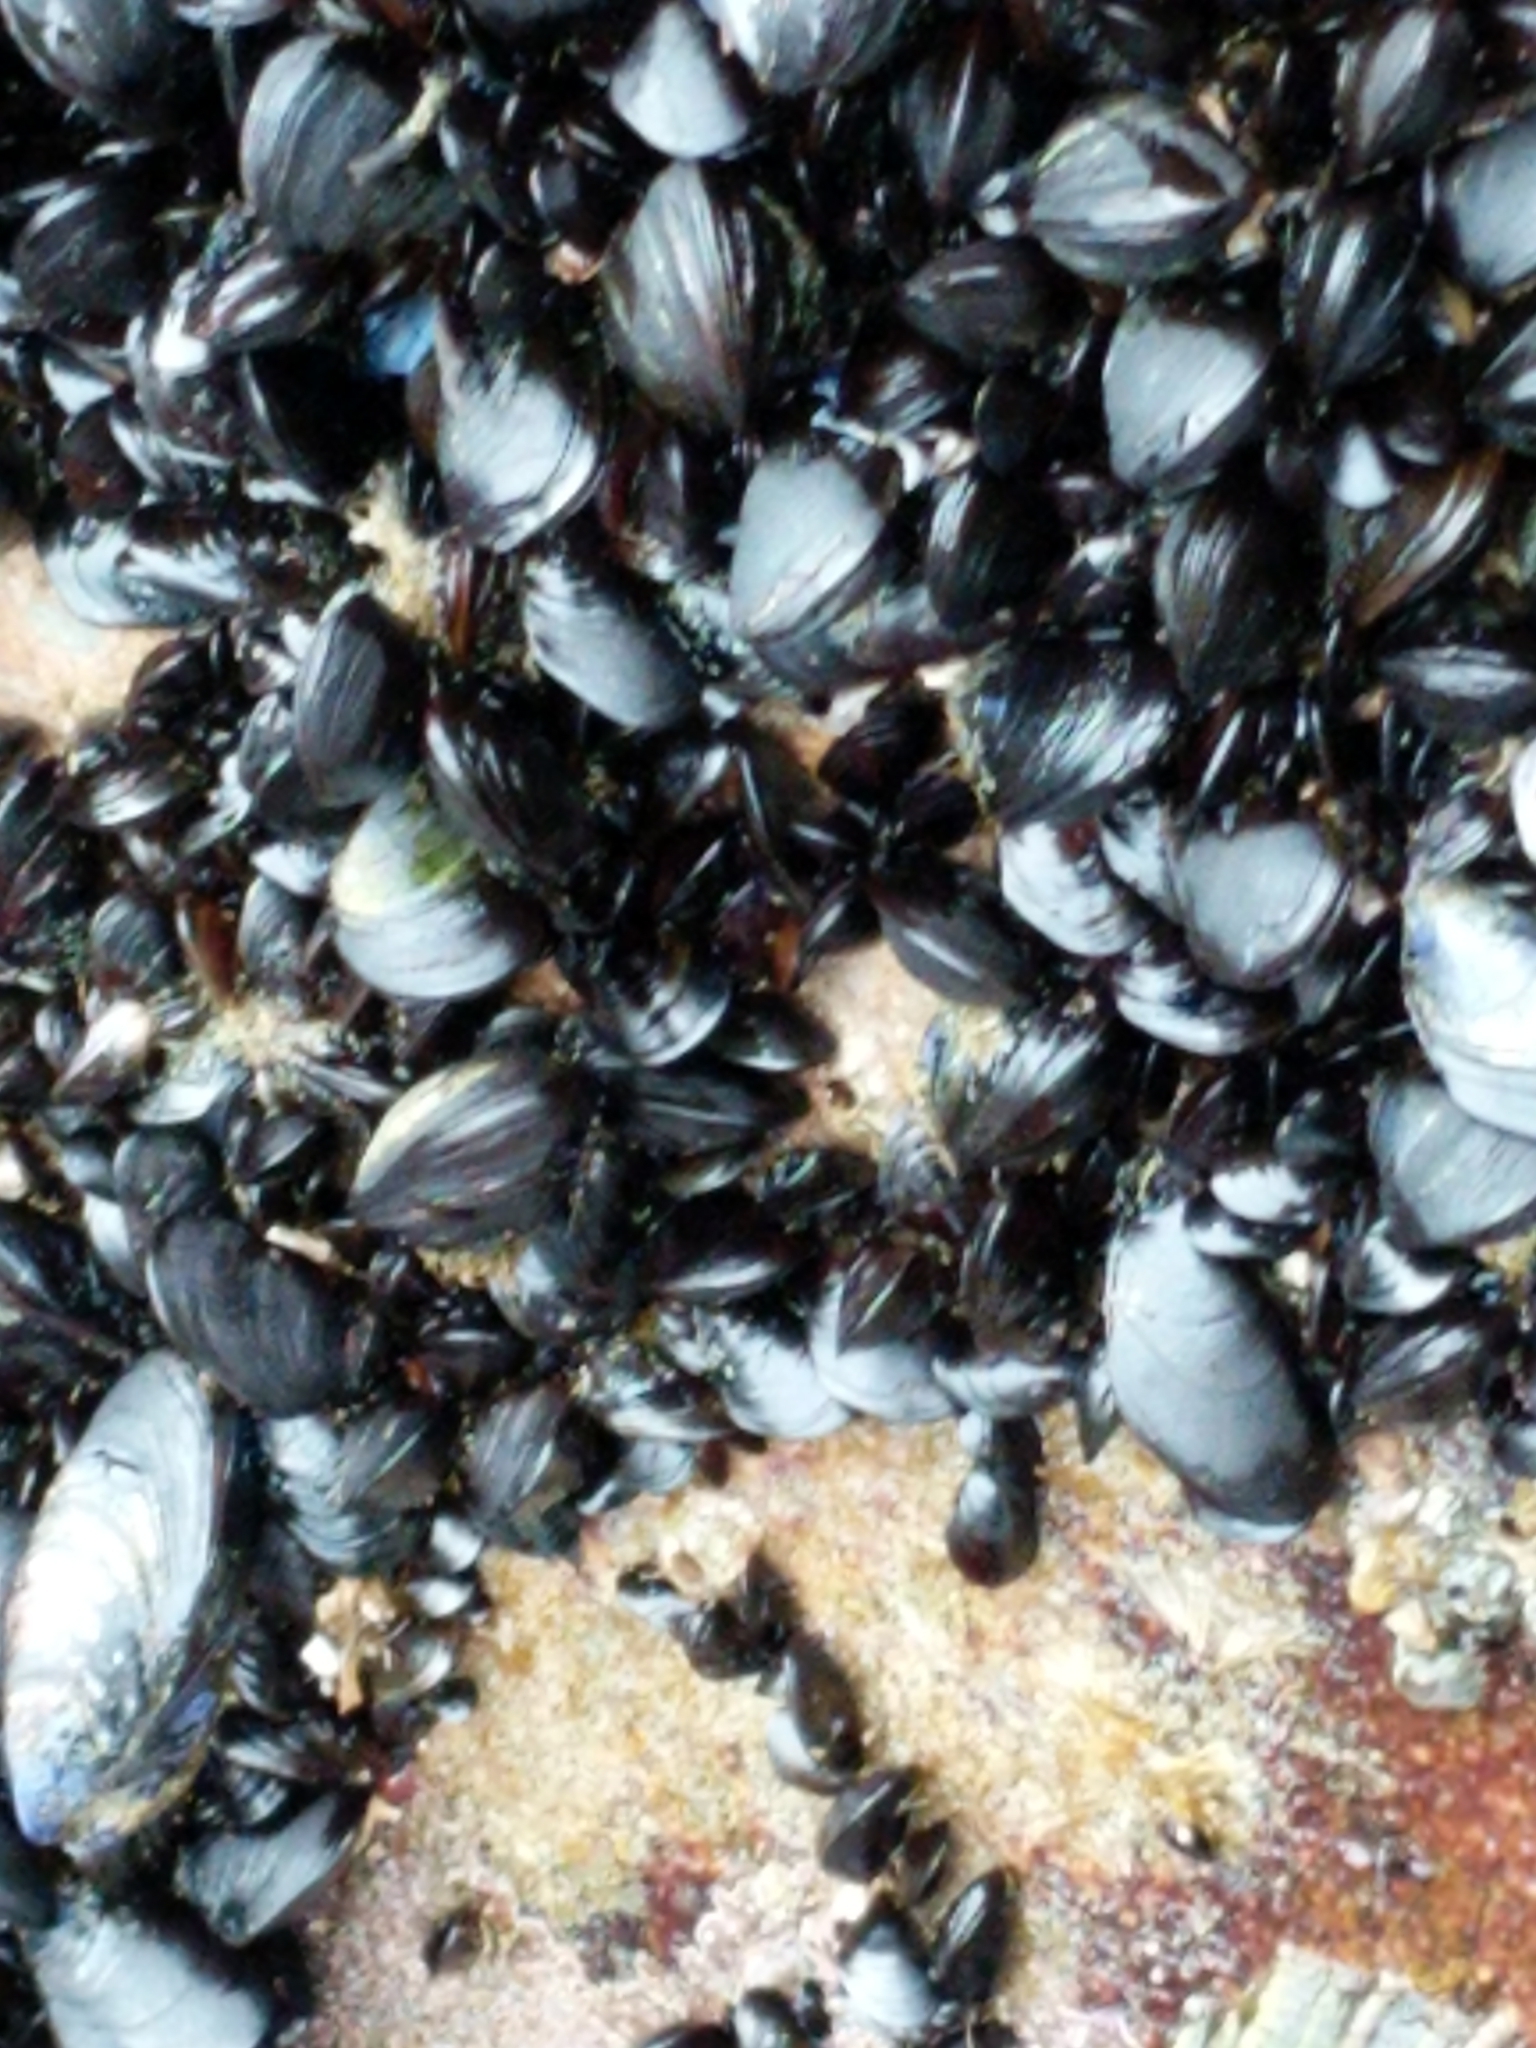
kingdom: Animalia
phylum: Mollusca
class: Bivalvia
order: Mytilida
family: Mytilidae
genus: Mytilus
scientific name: Mytilus edulis
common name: Blue mussel
